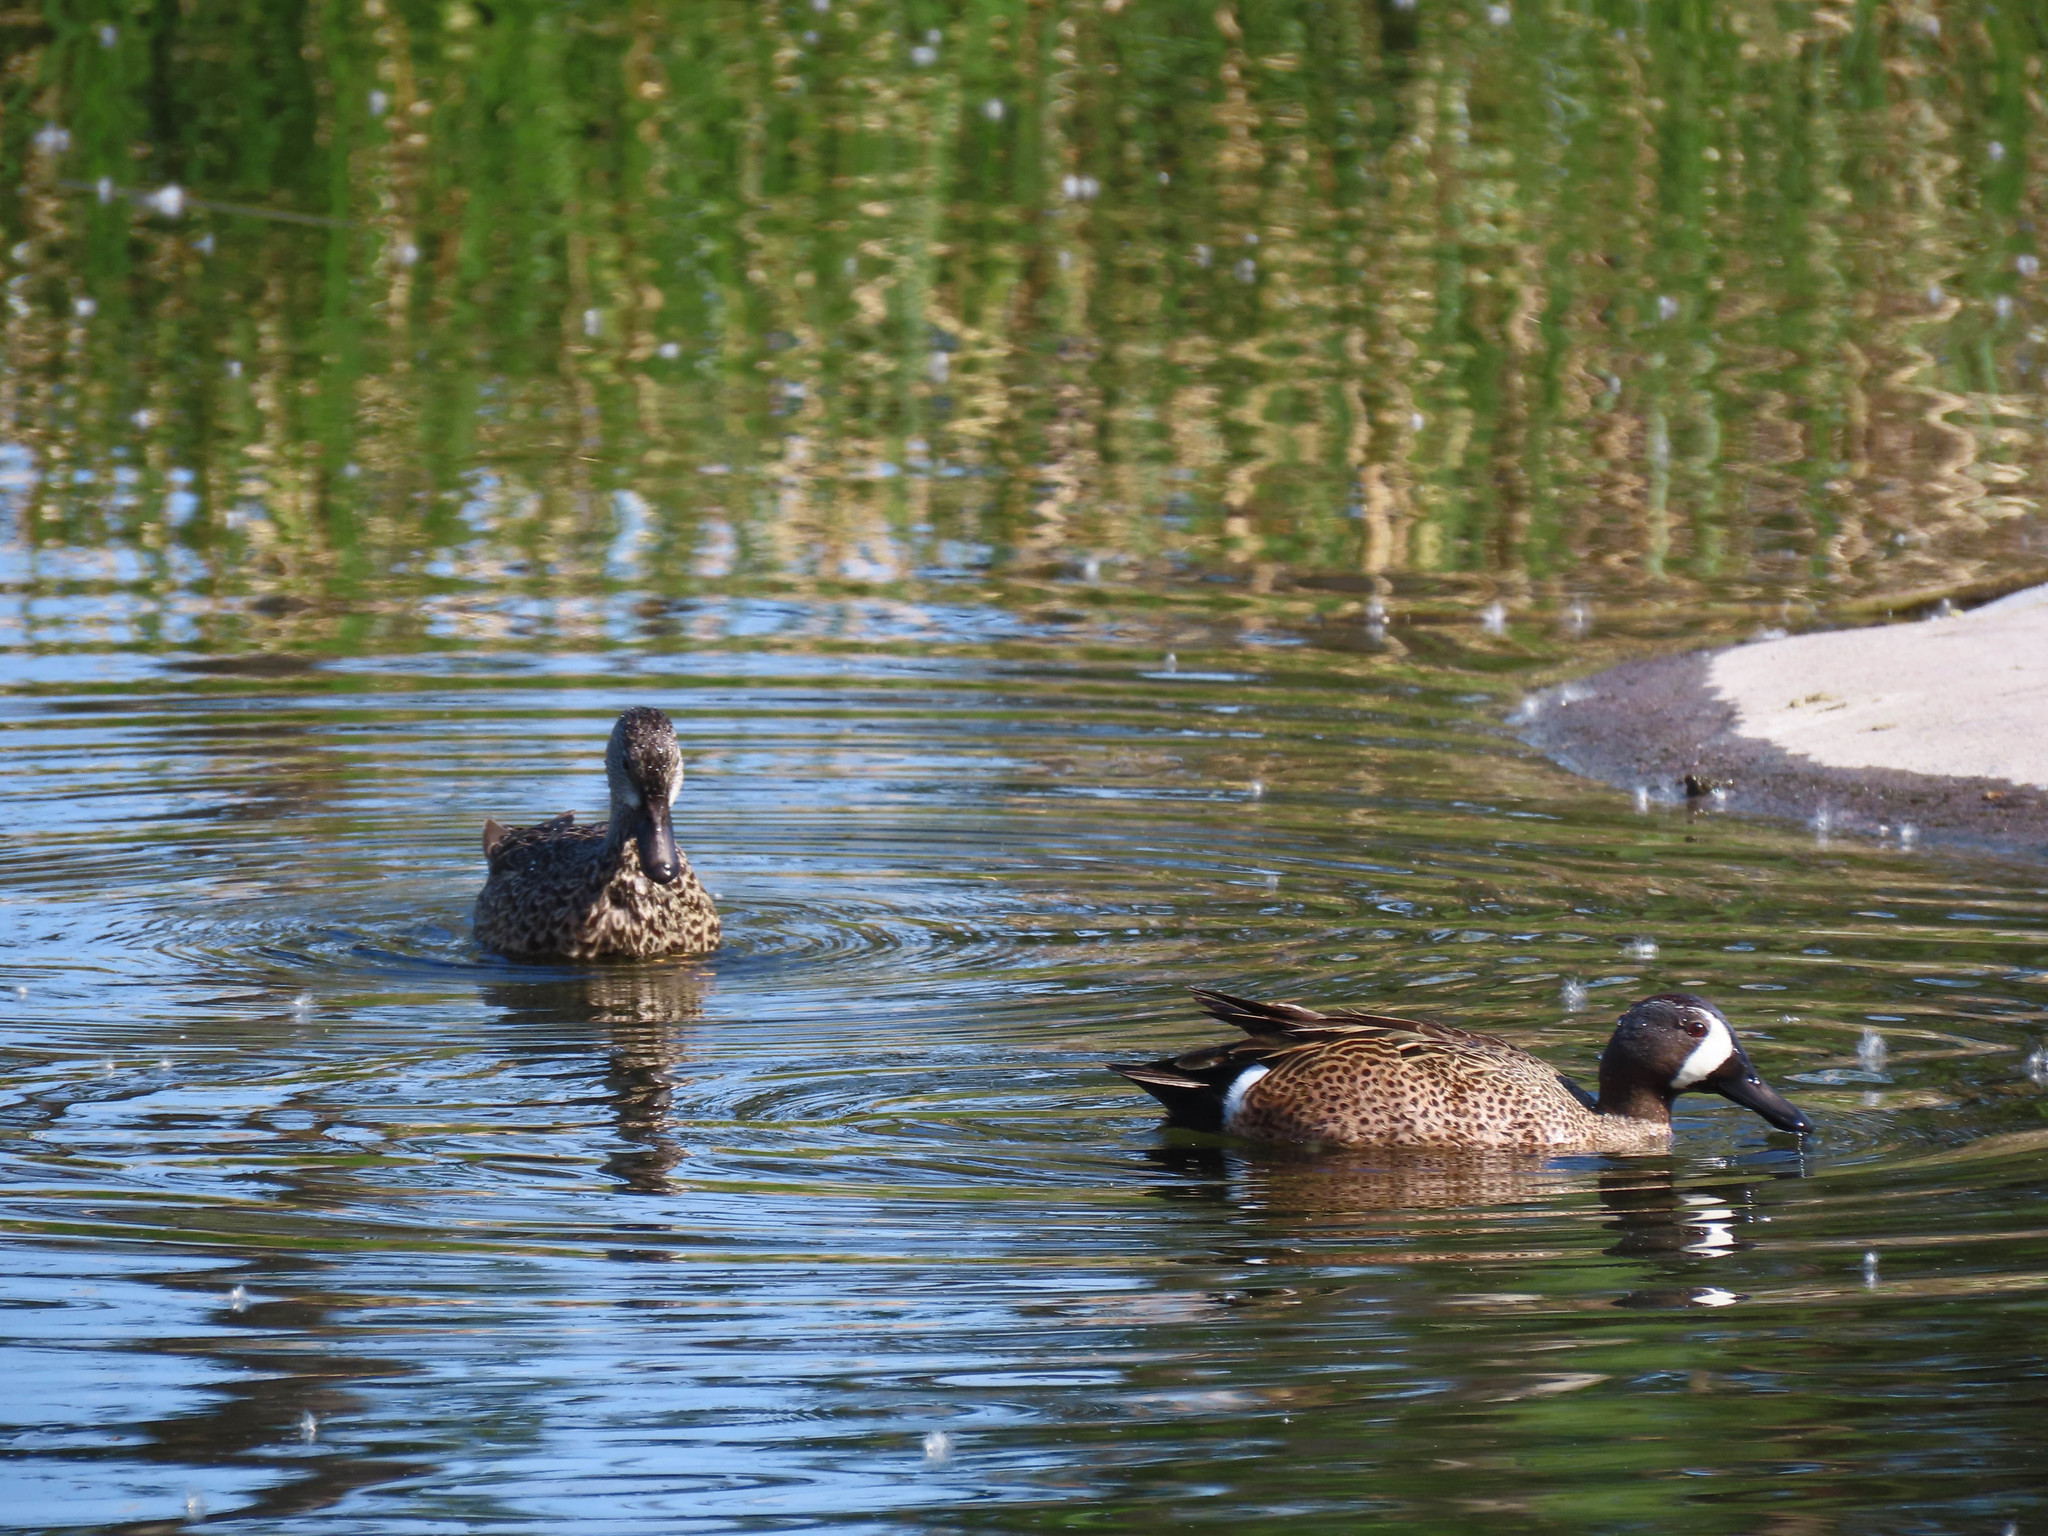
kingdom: Animalia
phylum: Chordata
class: Aves
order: Anseriformes
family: Anatidae
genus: Spatula
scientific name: Spatula discors
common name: Blue-winged teal
